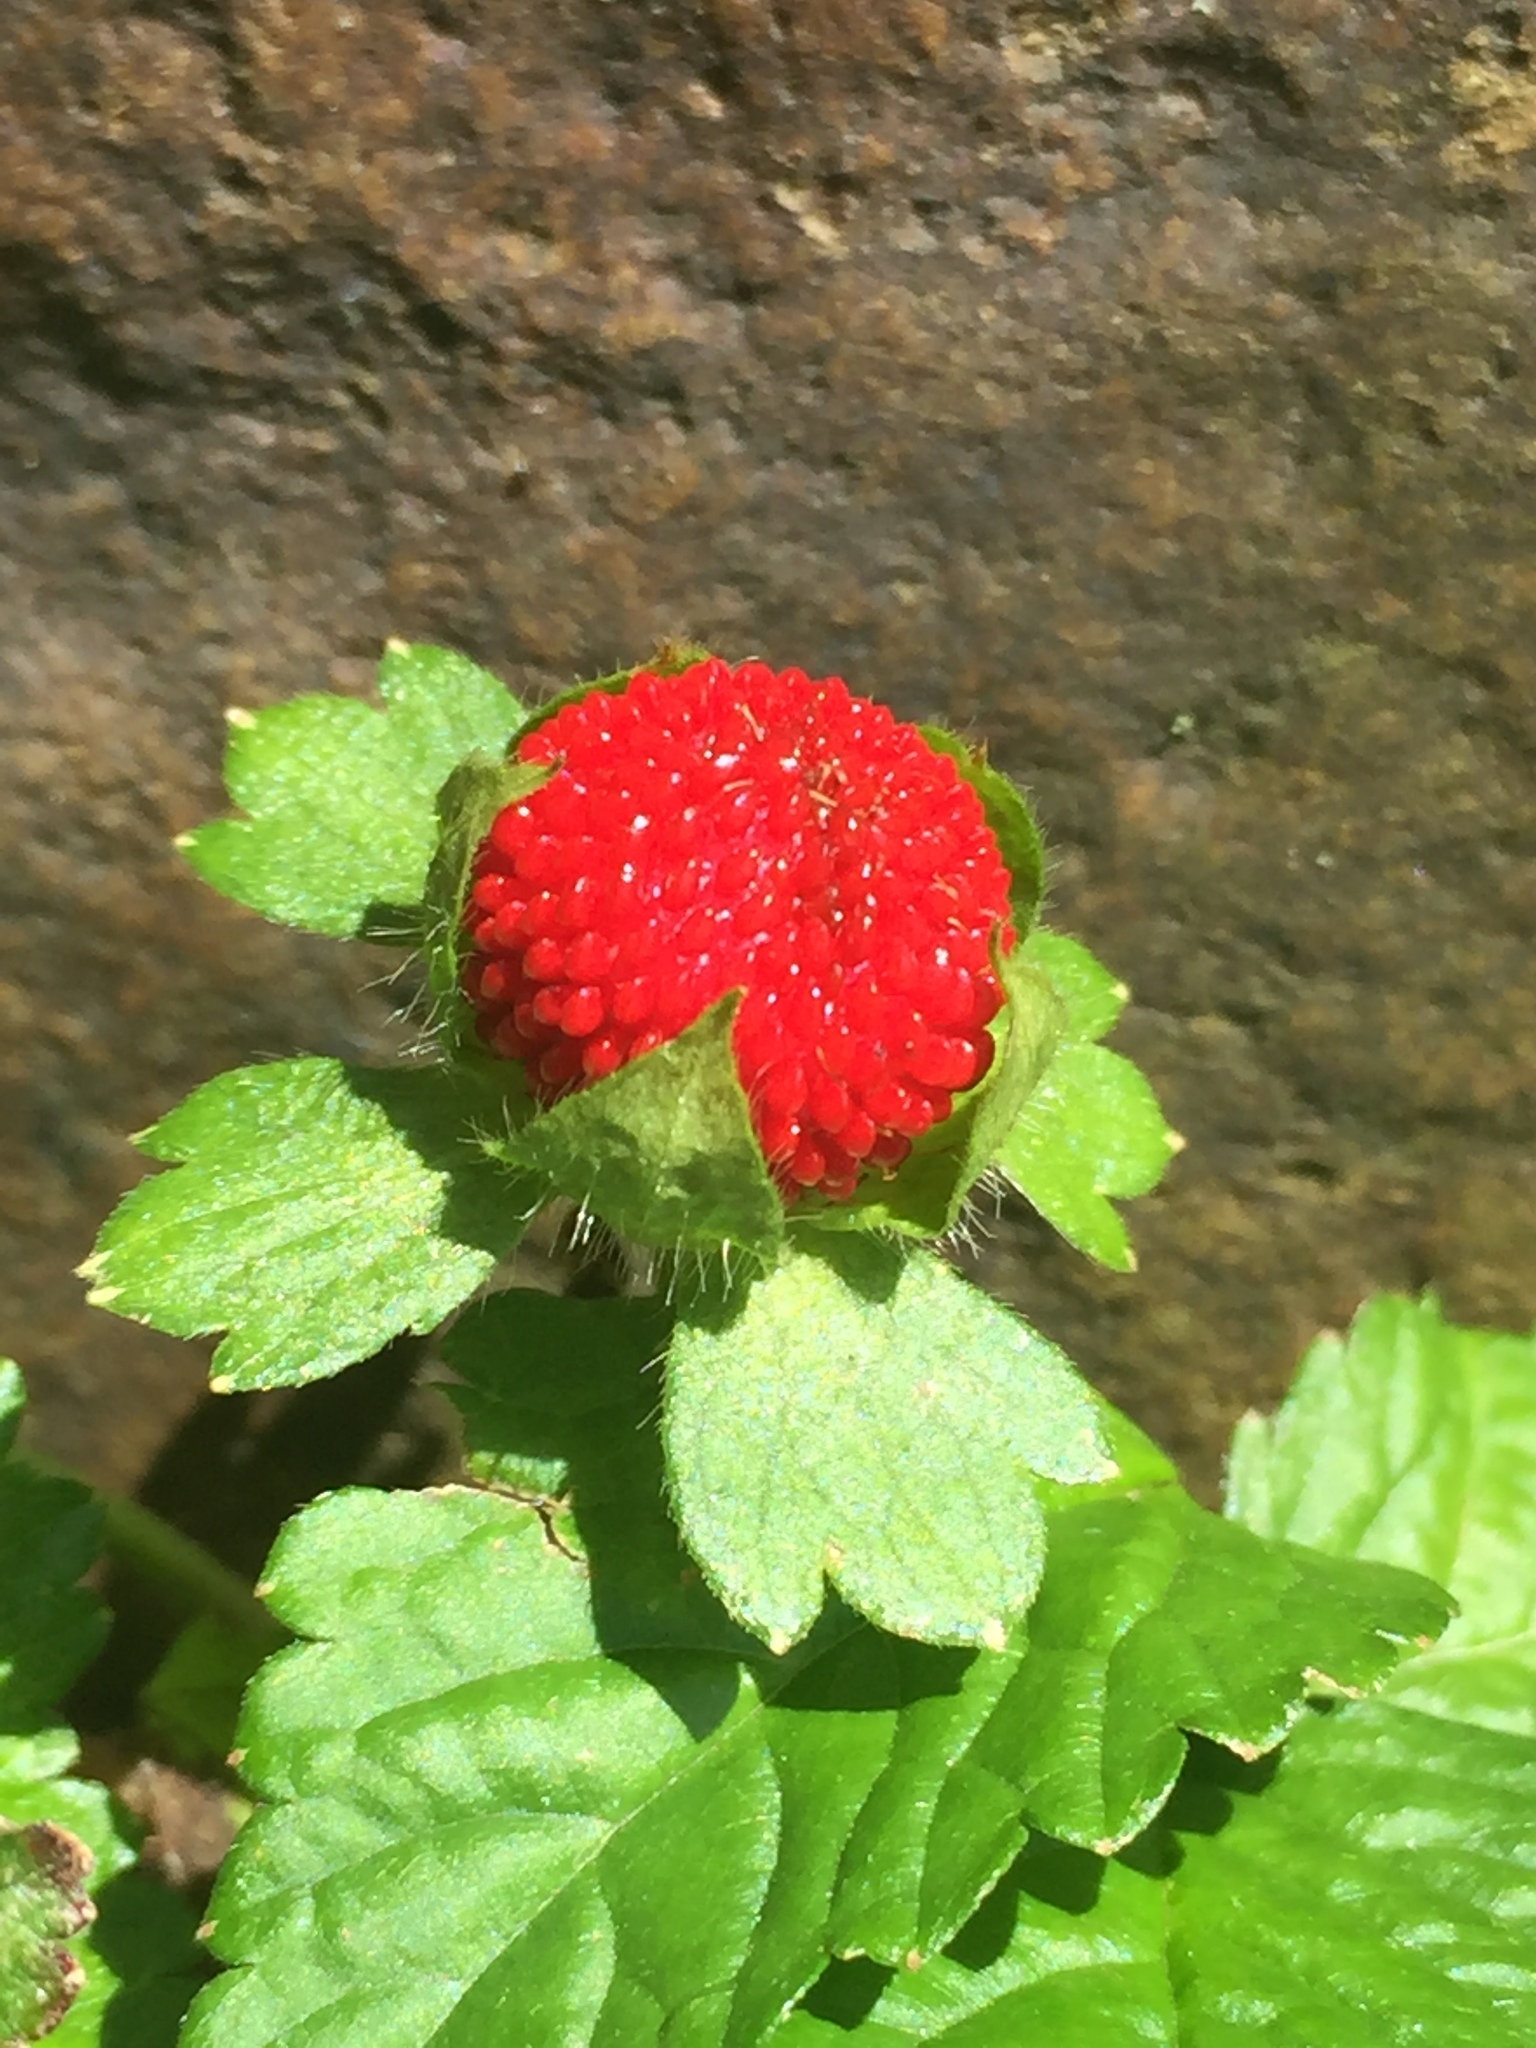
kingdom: Plantae
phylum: Tracheophyta
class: Magnoliopsida
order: Rosales
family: Rosaceae
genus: Potentilla
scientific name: Potentilla indica
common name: Yellow-flowered strawberry
